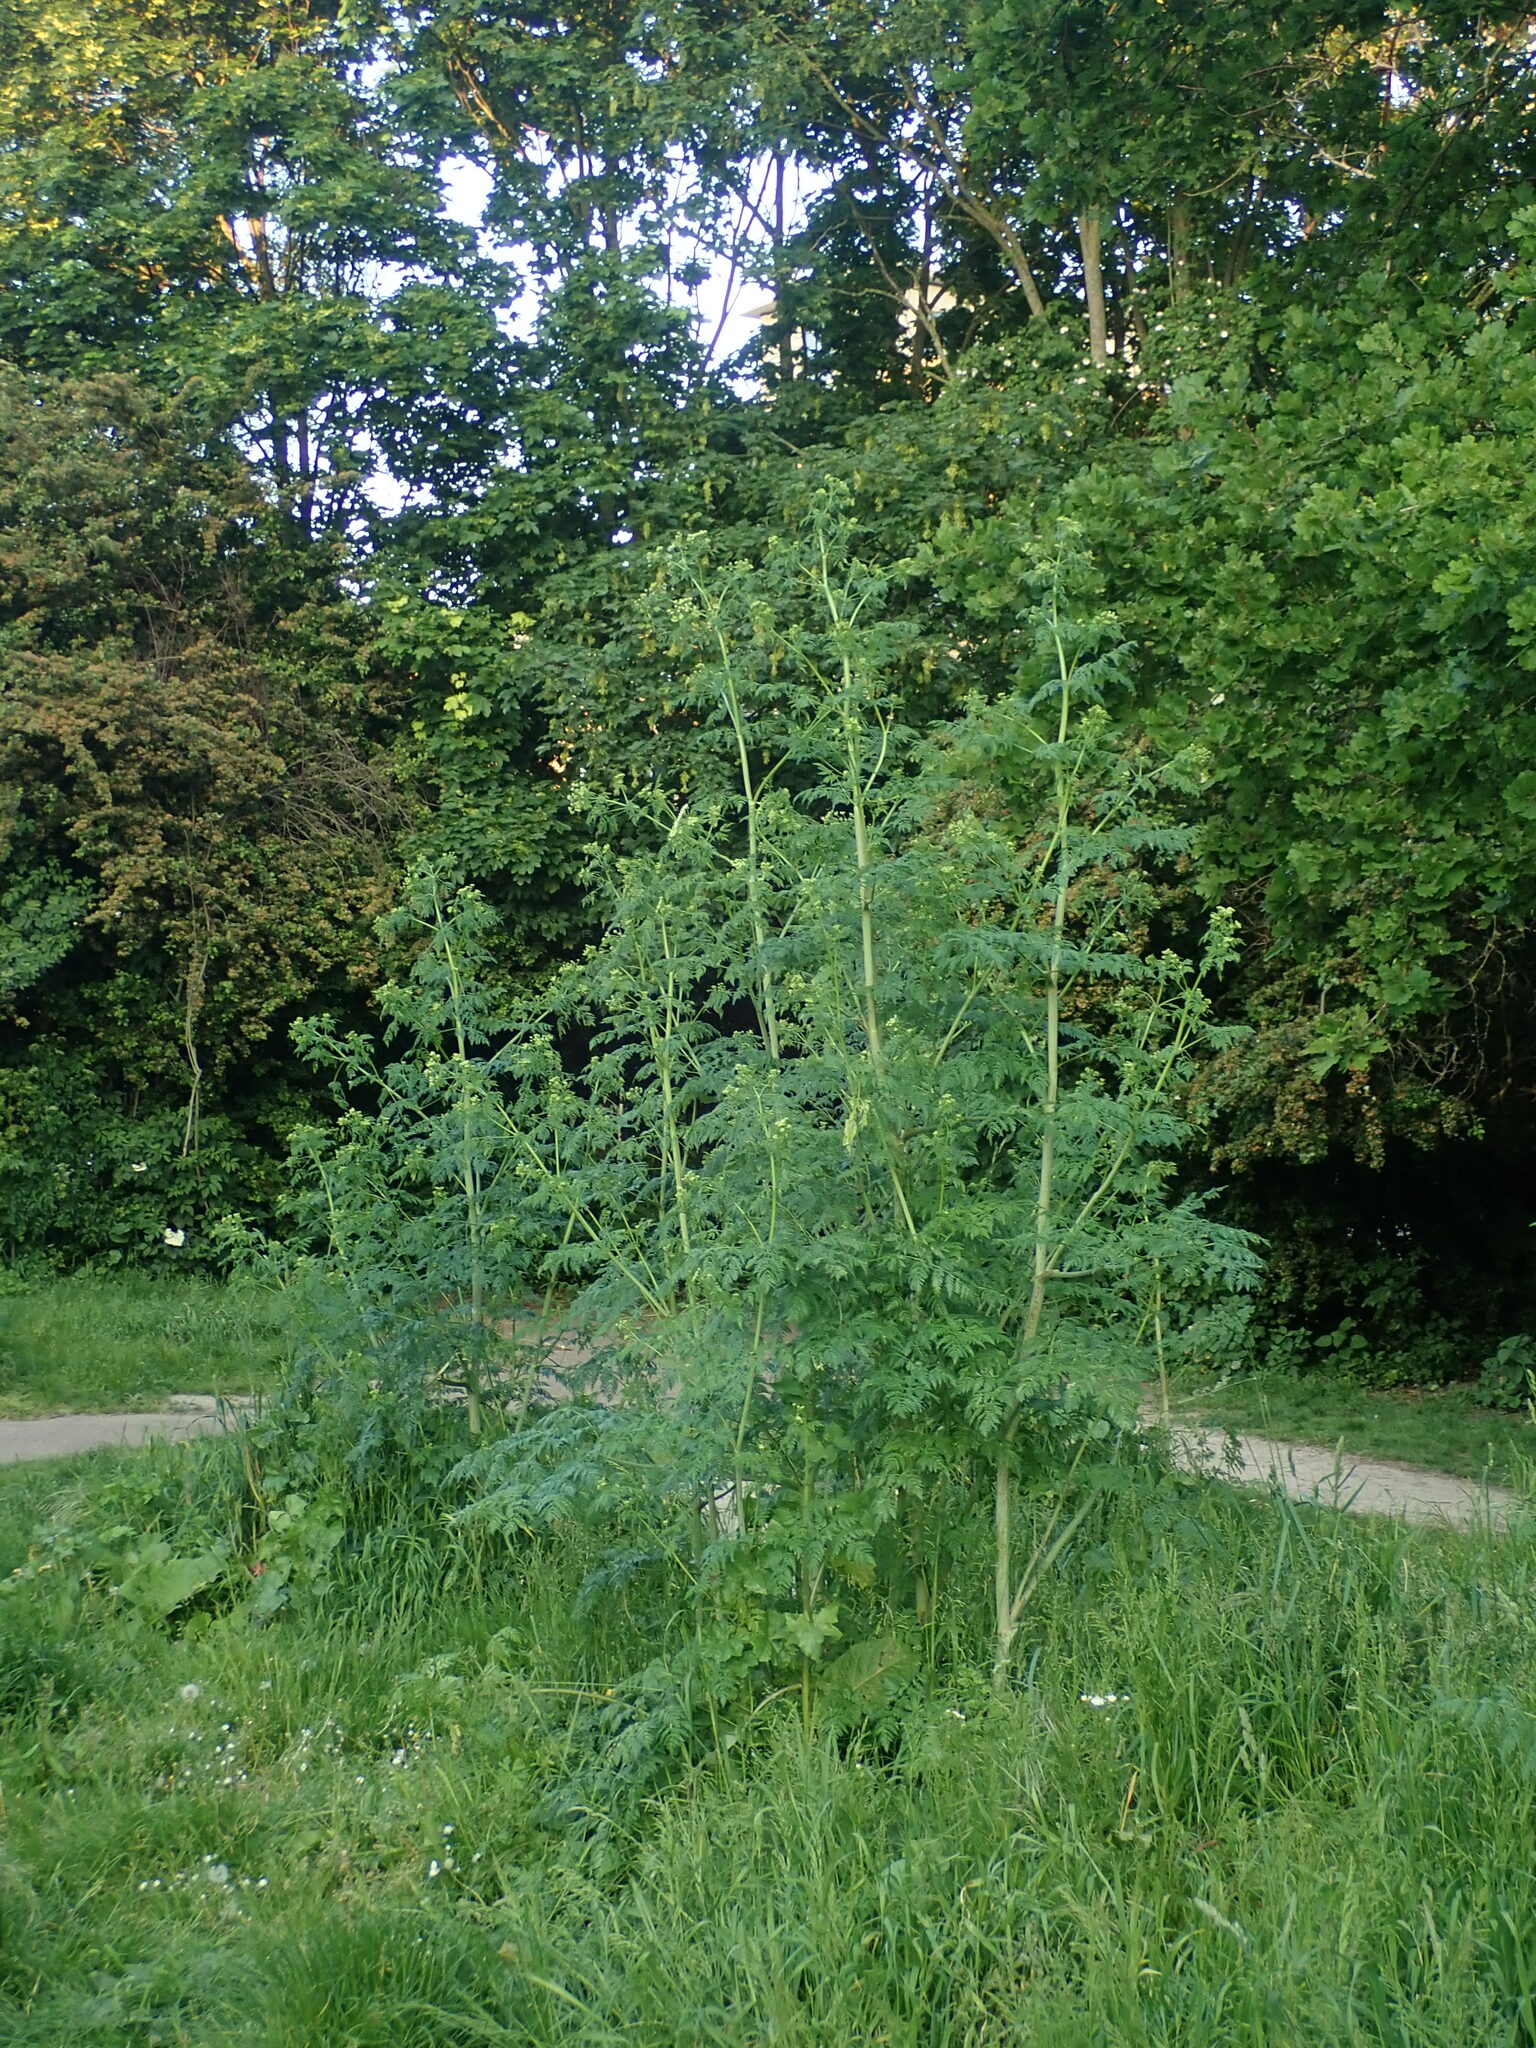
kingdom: Plantae
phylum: Tracheophyta
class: Magnoliopsida
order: Apiales
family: Apiaceae
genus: Conium
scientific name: Conium maculatum
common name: Hemlock
